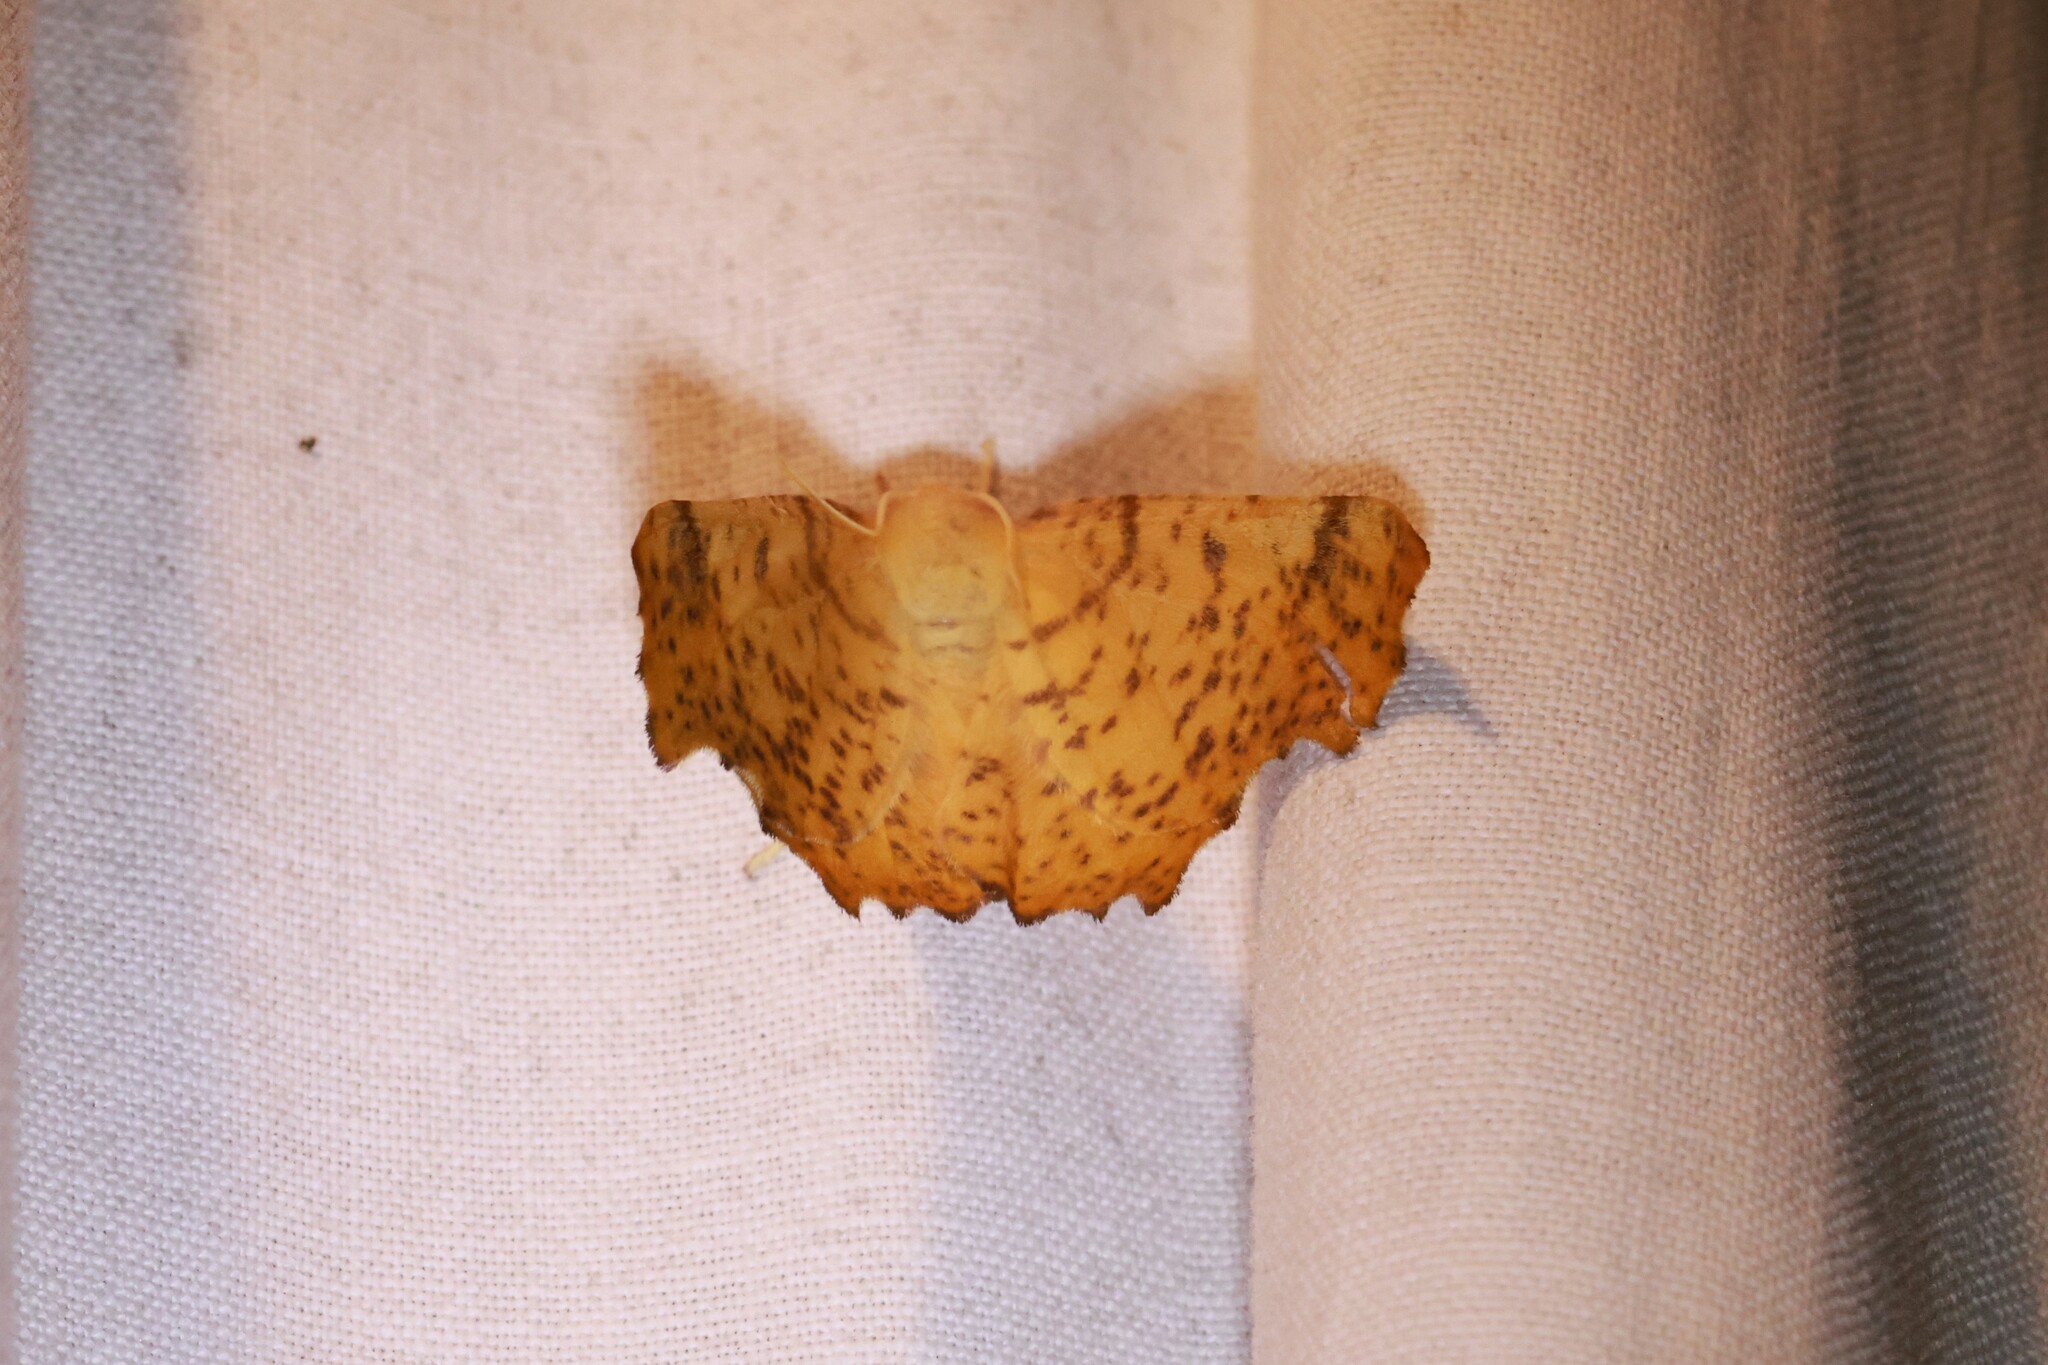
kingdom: Animalia
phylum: Arthropoda
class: Insecta
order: Lepidoptera
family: Geometridae
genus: Ennomos
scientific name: Ennomos magnaria
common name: Maple spanworm
